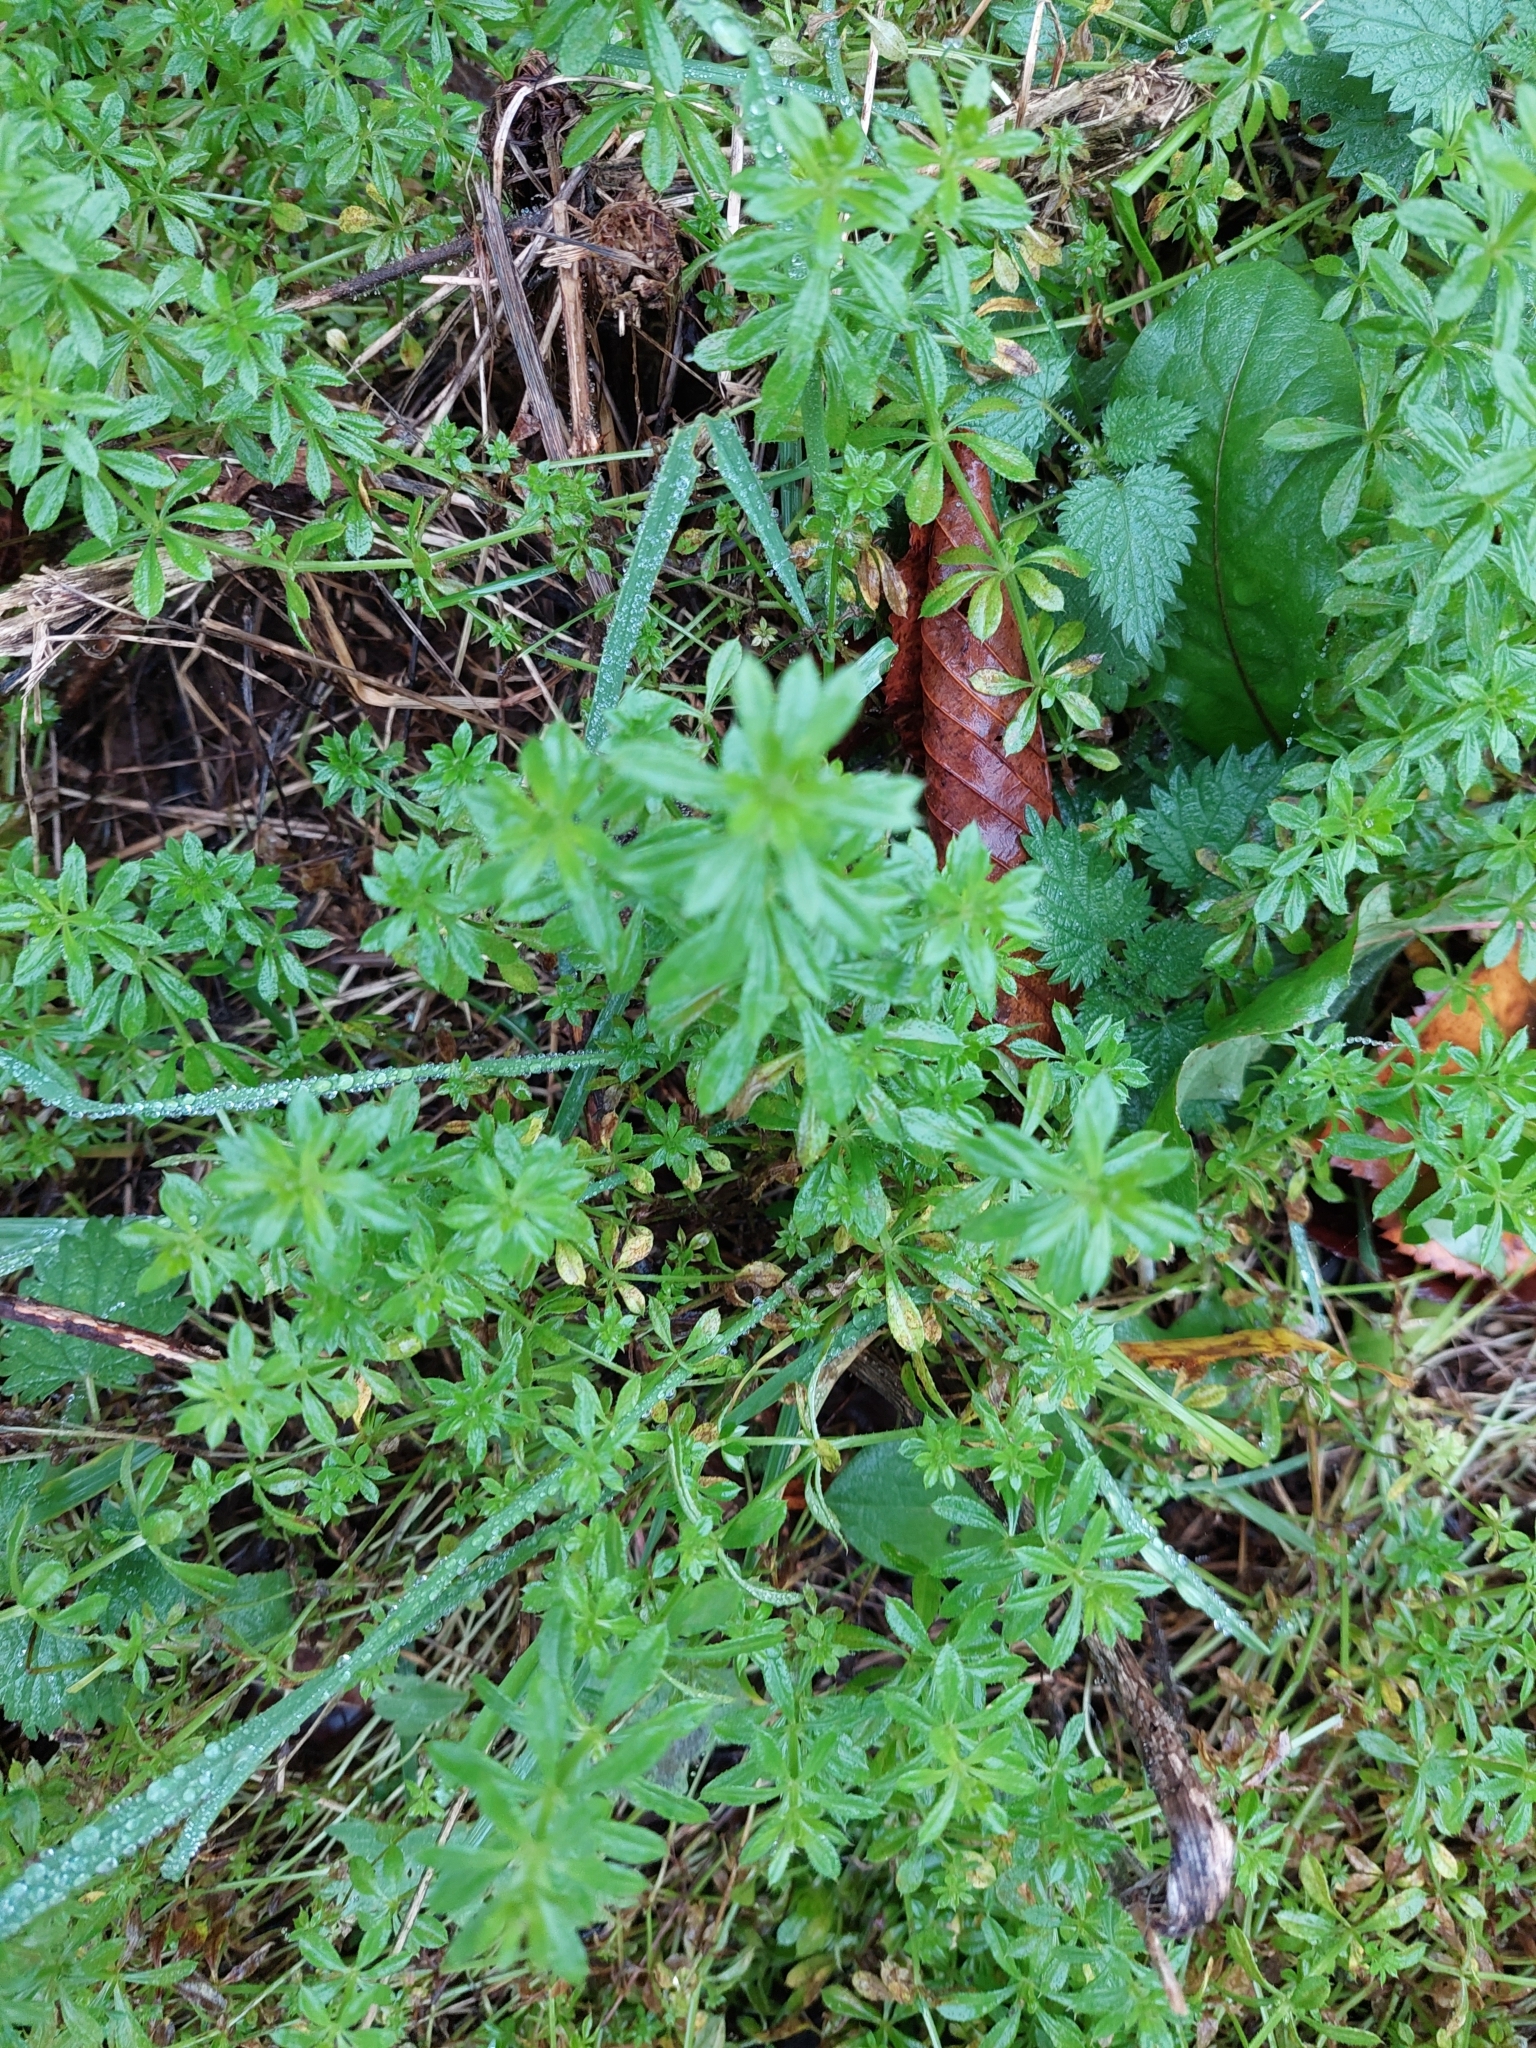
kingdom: Plantae
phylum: Tracheophyta
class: Magnoliopsida
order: Gentianales
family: Rubiaceae
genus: Galium
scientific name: Galium aparine
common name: Cleavers
